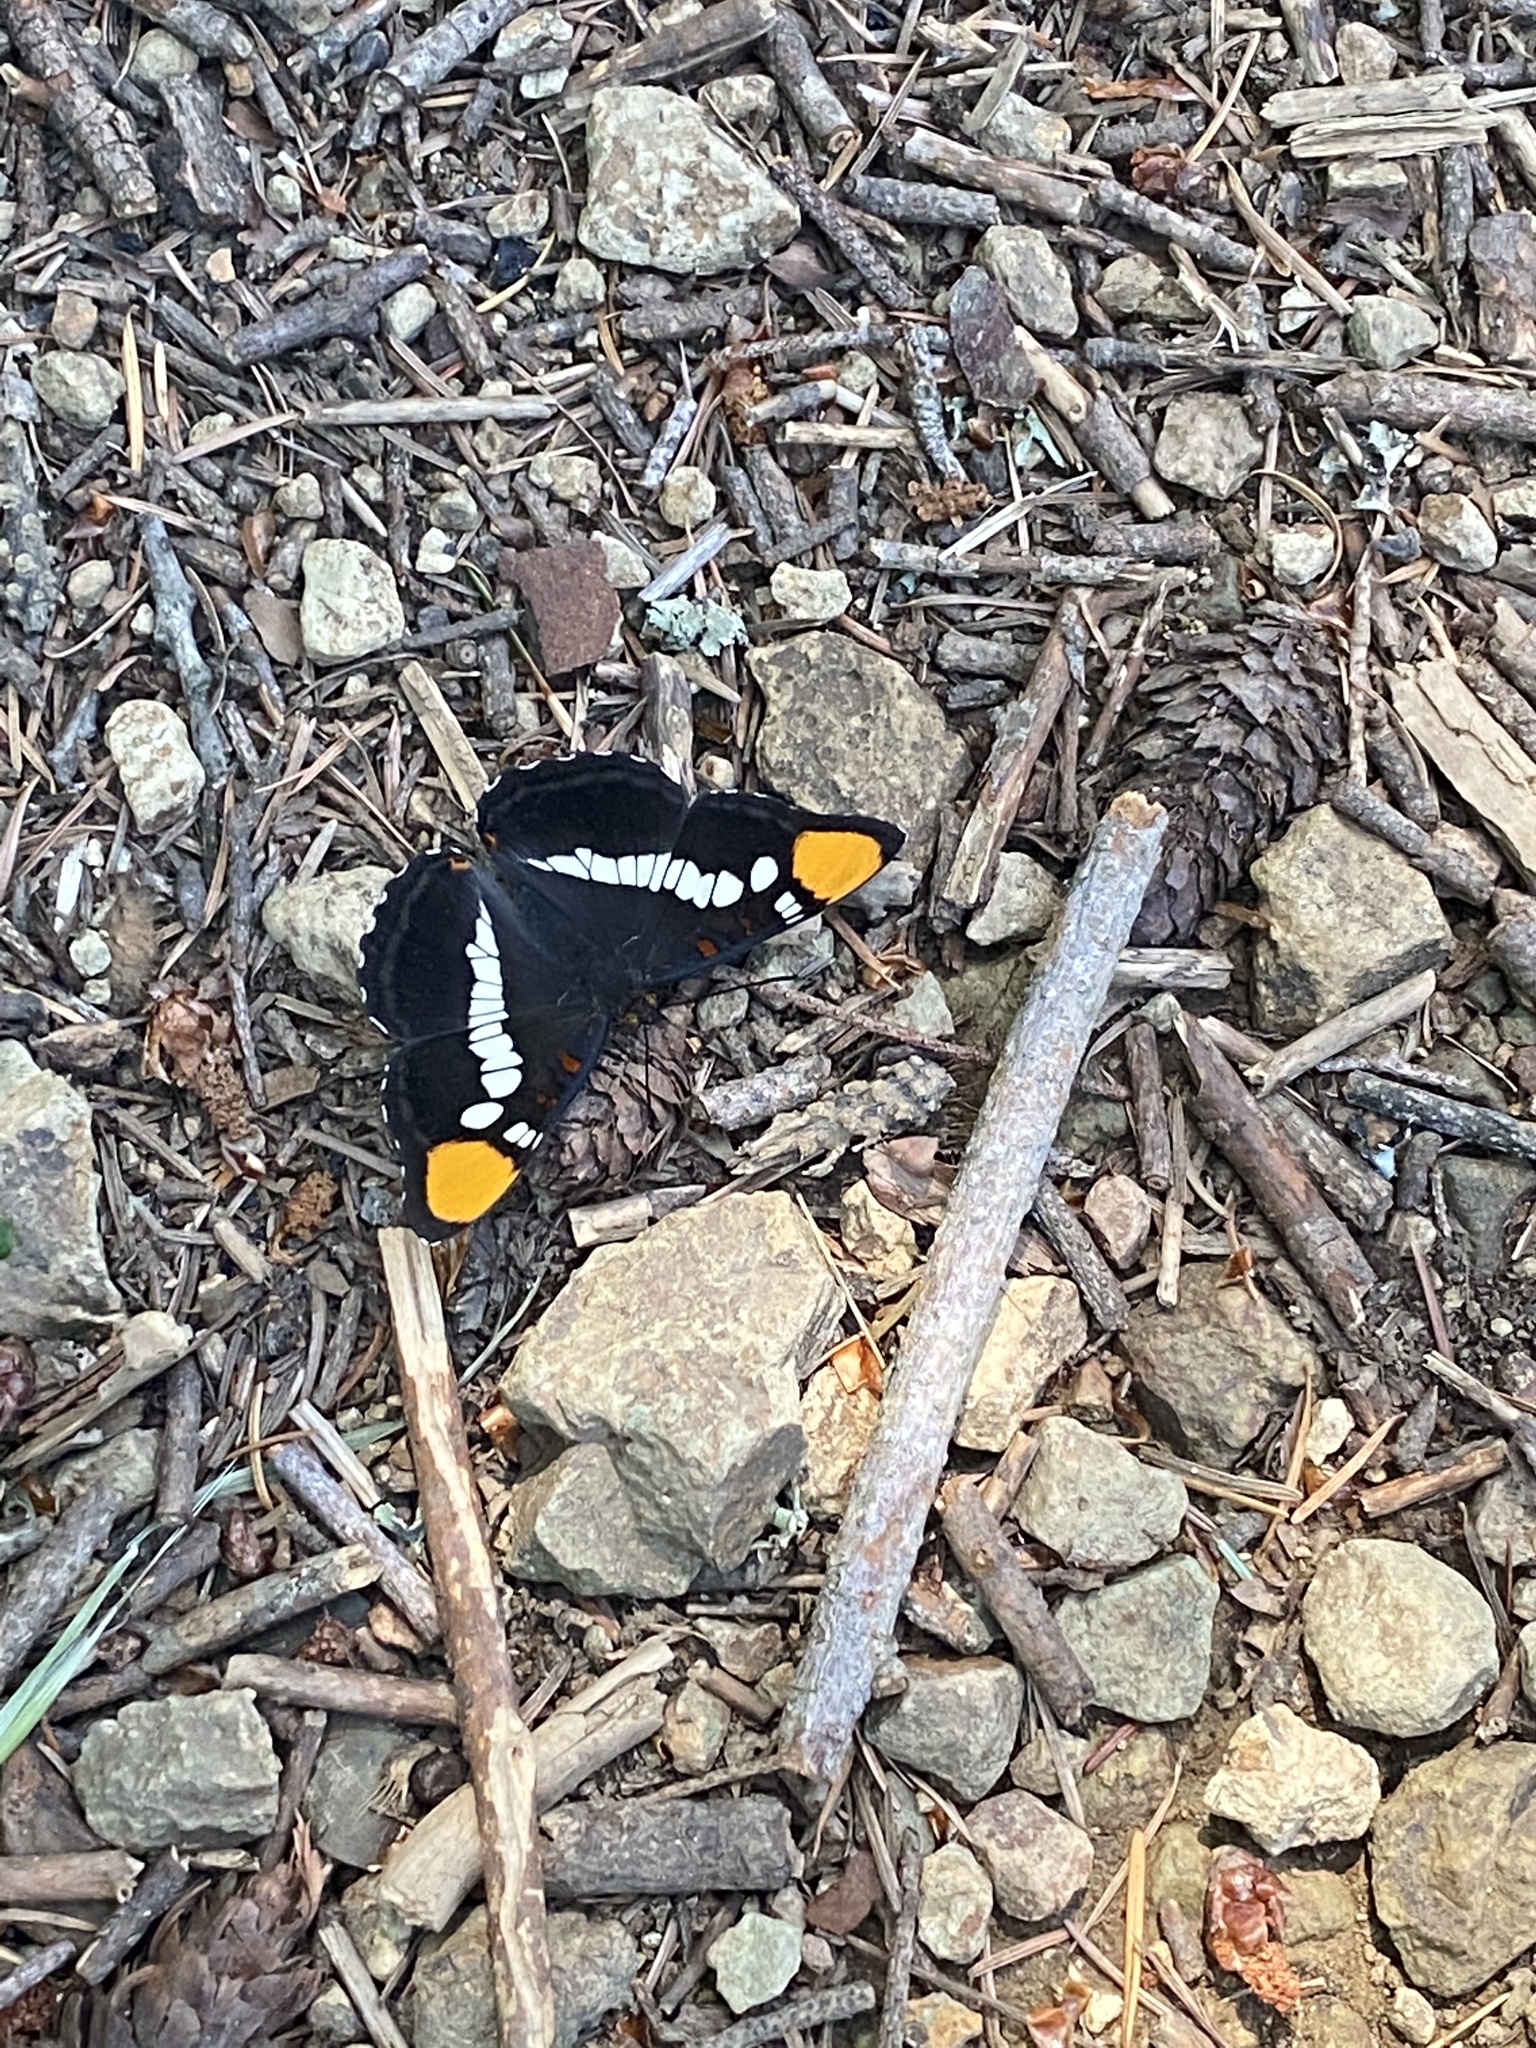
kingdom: Animalia
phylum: Arthropoda
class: Insecta
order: Lepidoptera
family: Nymphalidae
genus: Limenitis
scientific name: Limenitis bredowii
